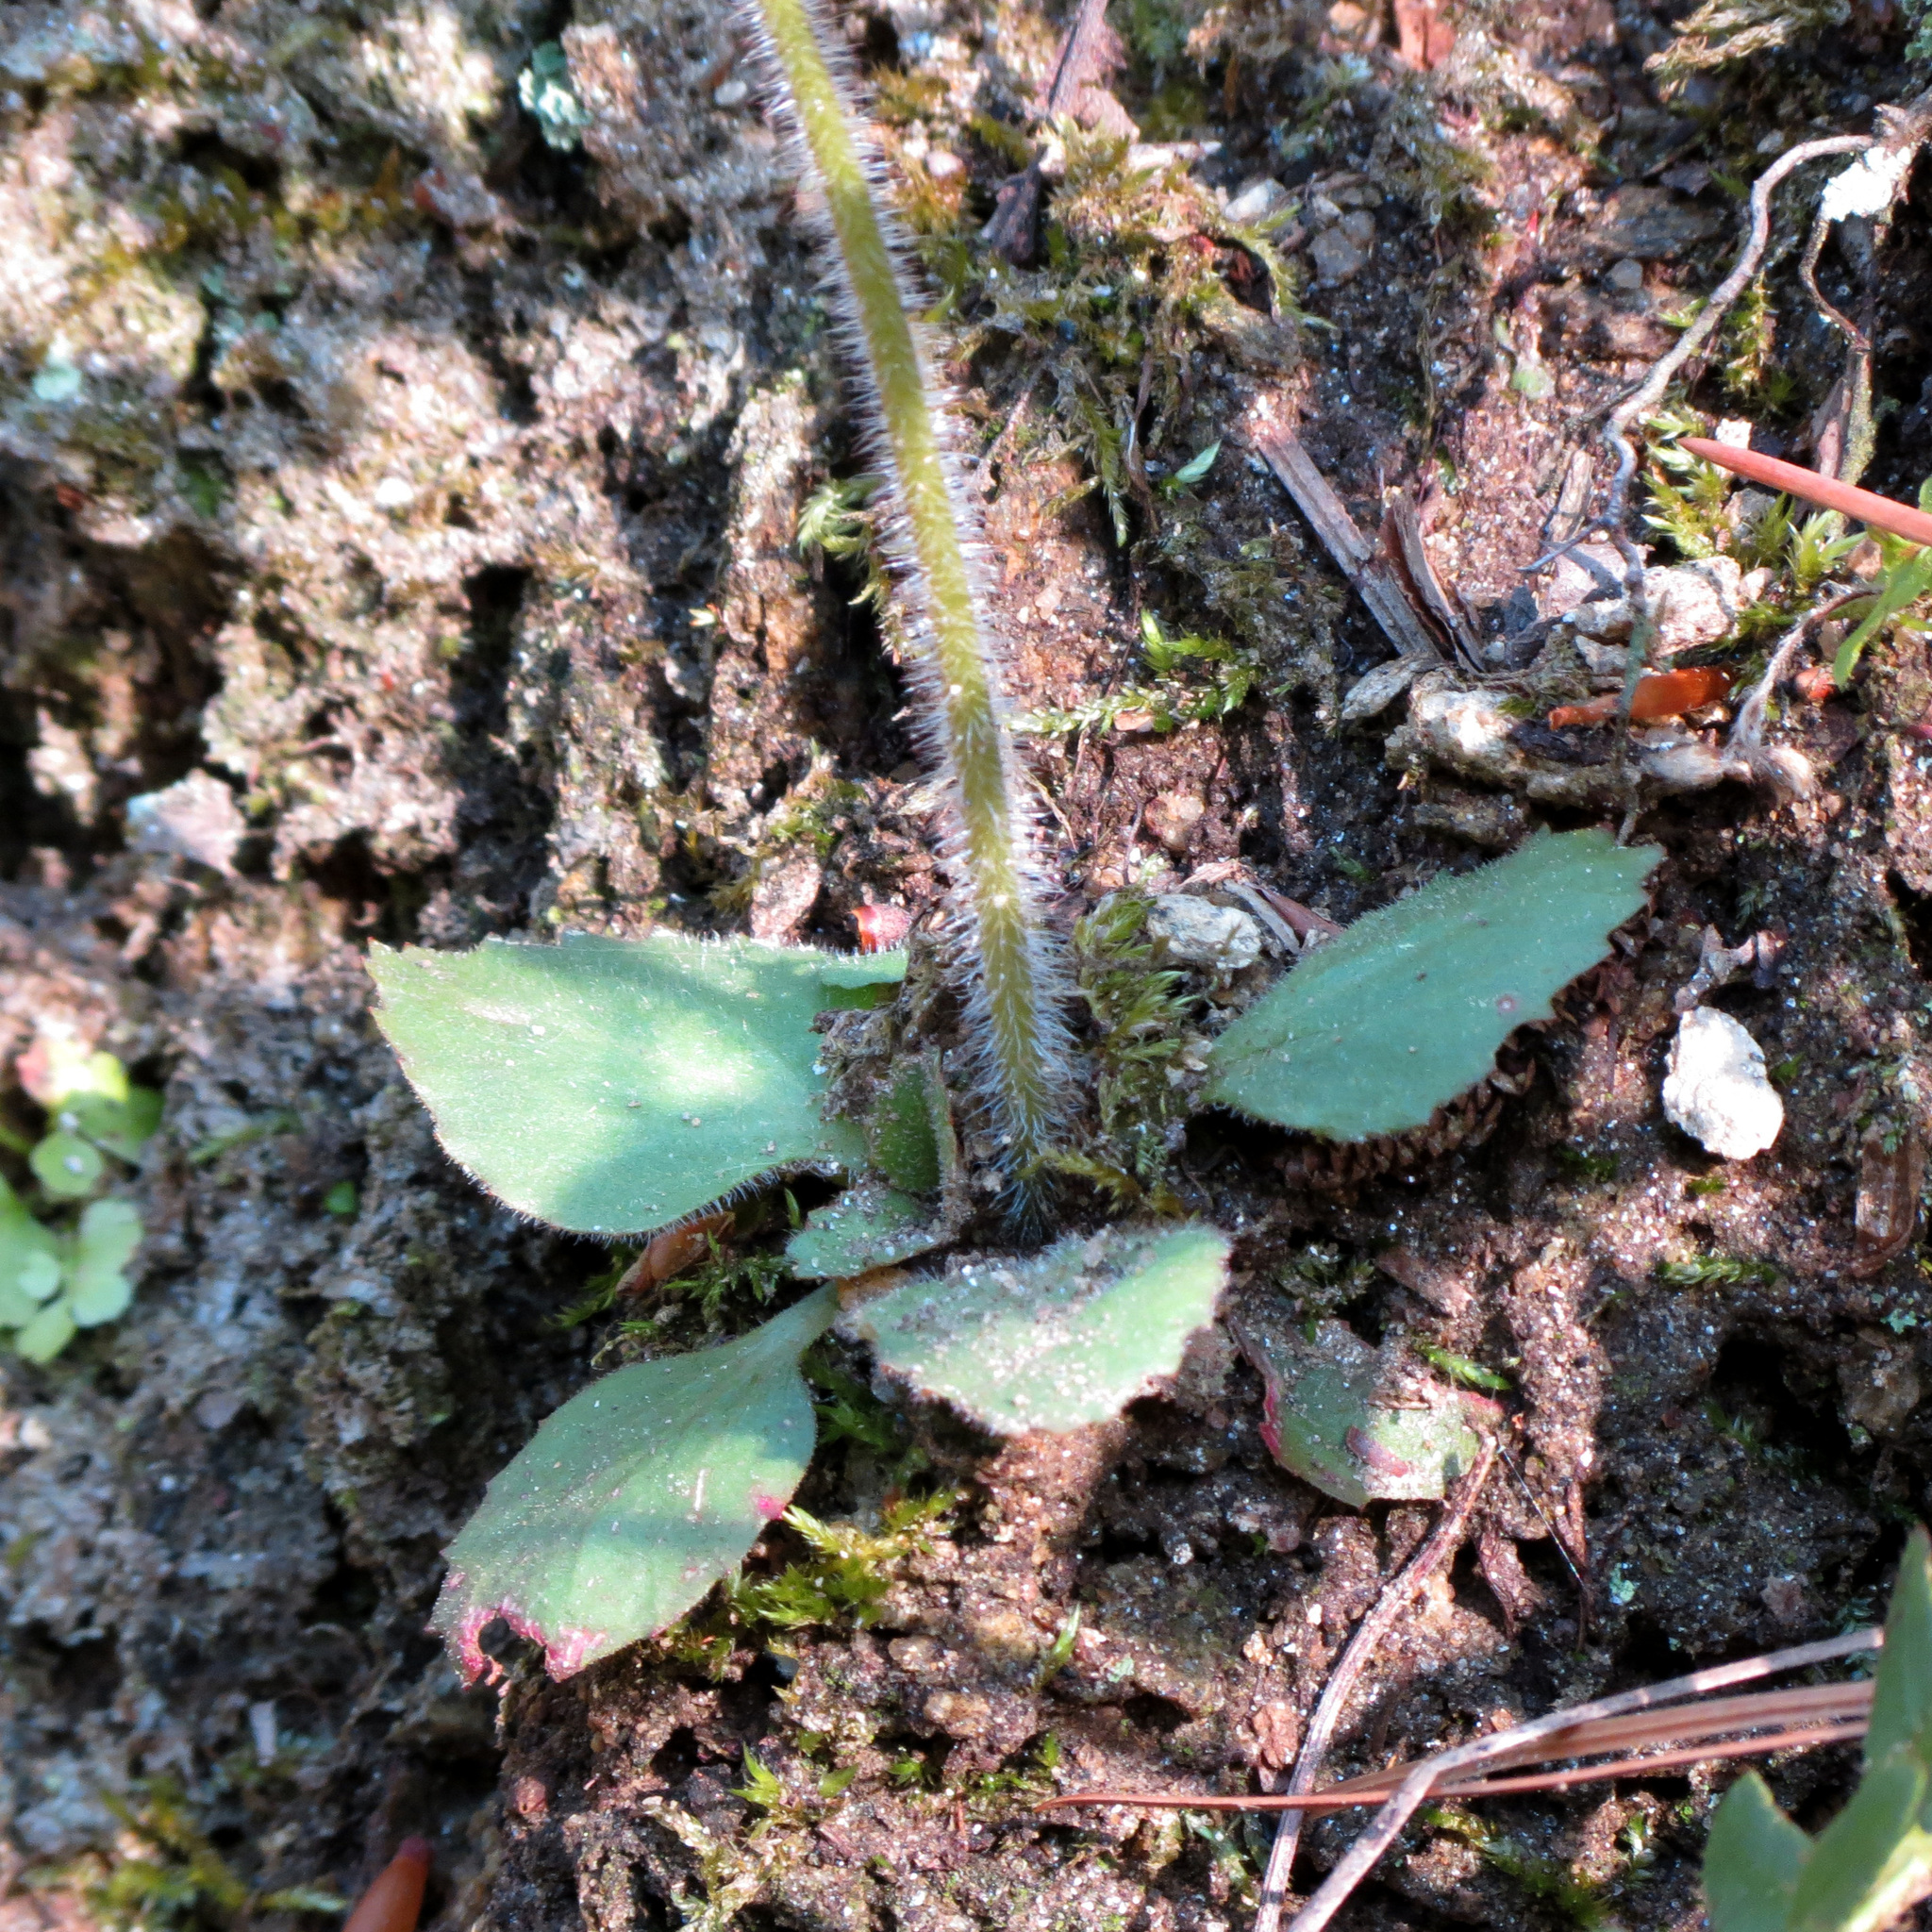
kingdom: Plantae
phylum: Tracheophyta
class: Magnoliopsida
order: Saxifragales
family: Saxifragaceae
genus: Micranthes
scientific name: Micranthes virginiensis
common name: Early saxifrage
